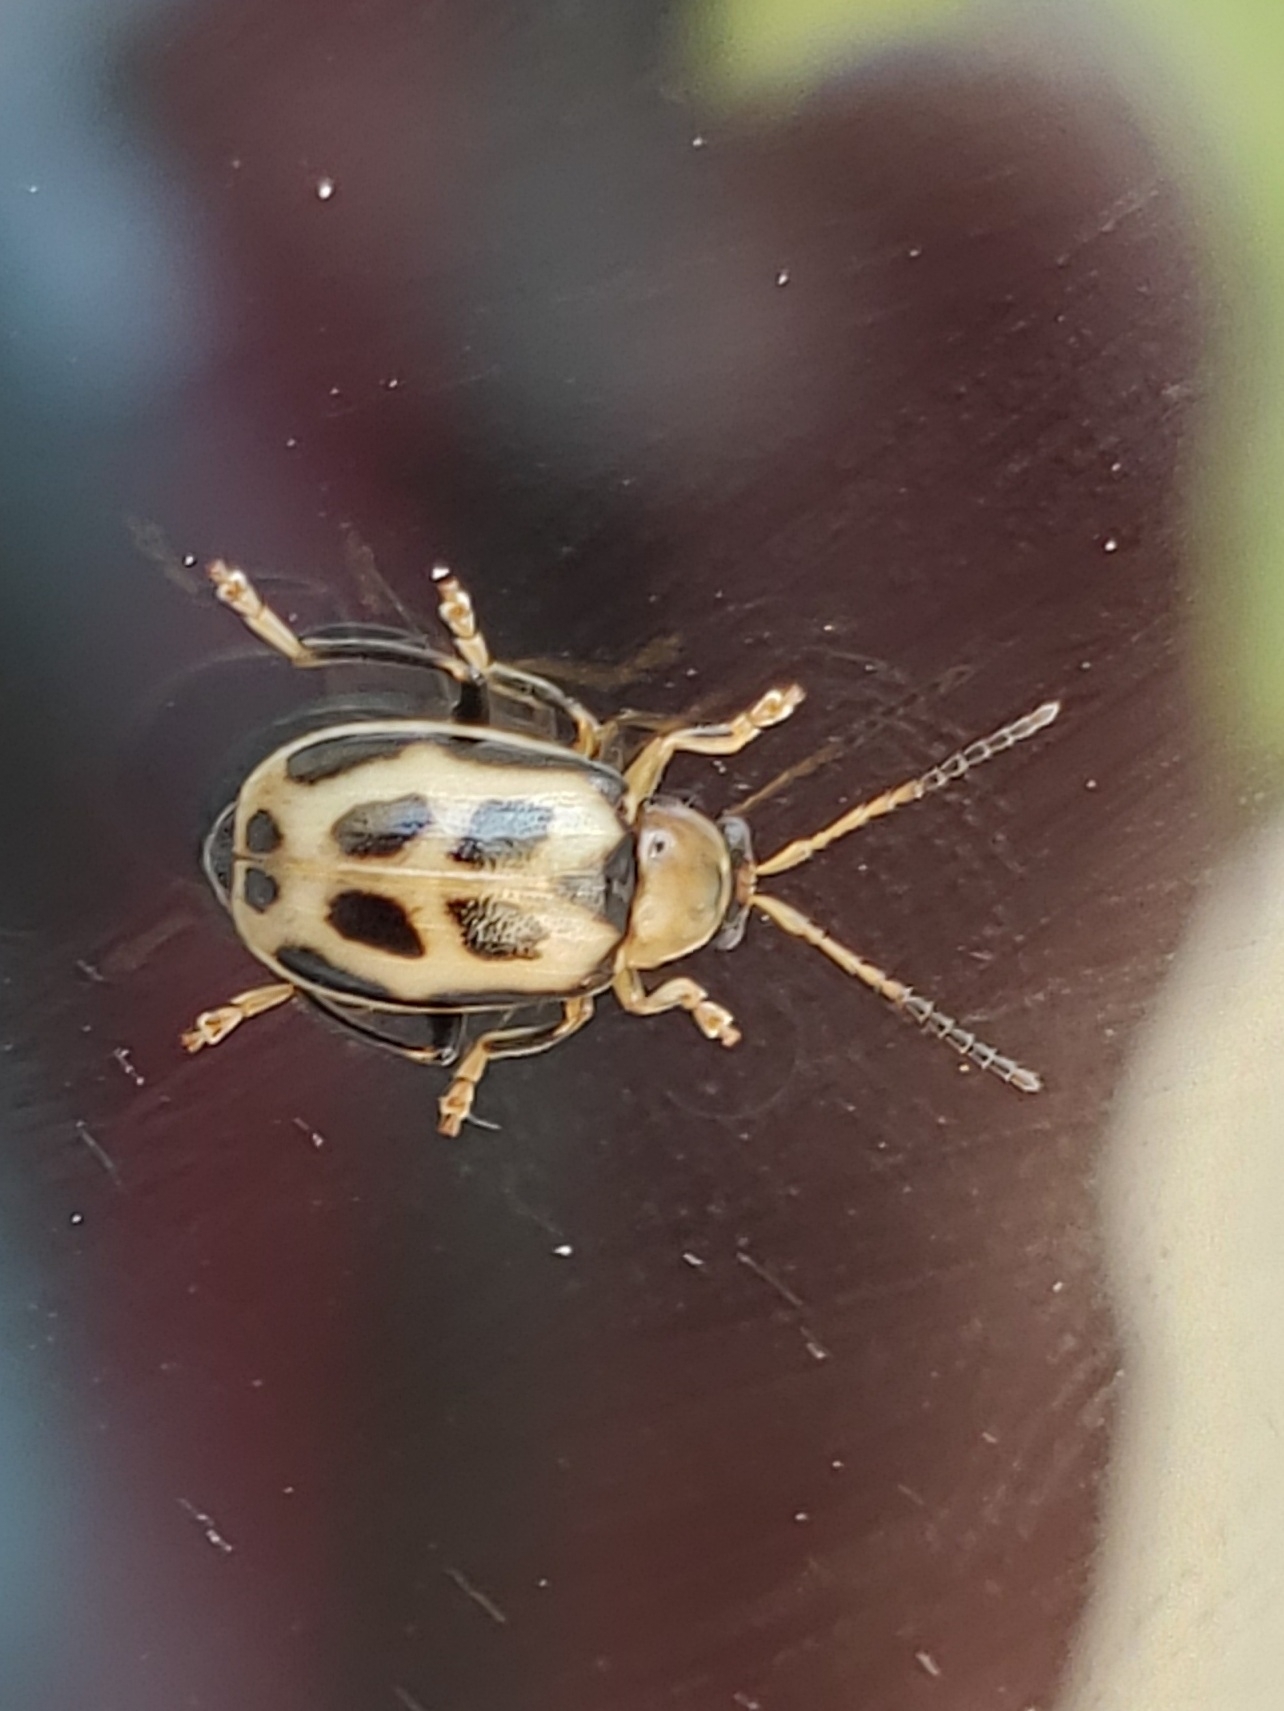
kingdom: Animalia
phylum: Arthropoda
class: Insecta
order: Coleoptera
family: Chrysomelidae
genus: Cerotoma
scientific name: Cerotoma trifurcata
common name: Bean leaf beetle
